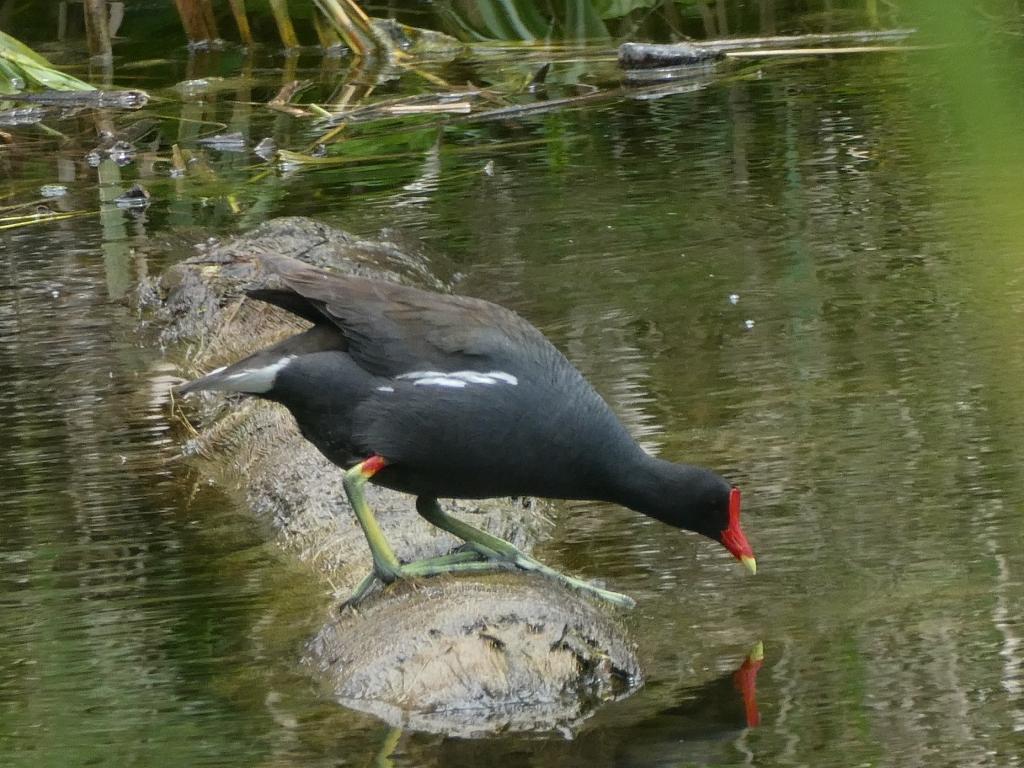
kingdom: Animalia
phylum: Chordata
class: Aves
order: Gruiformes
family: Rallidae
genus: Gallinula
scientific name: Gallinula chloropus
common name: Common moorhen
